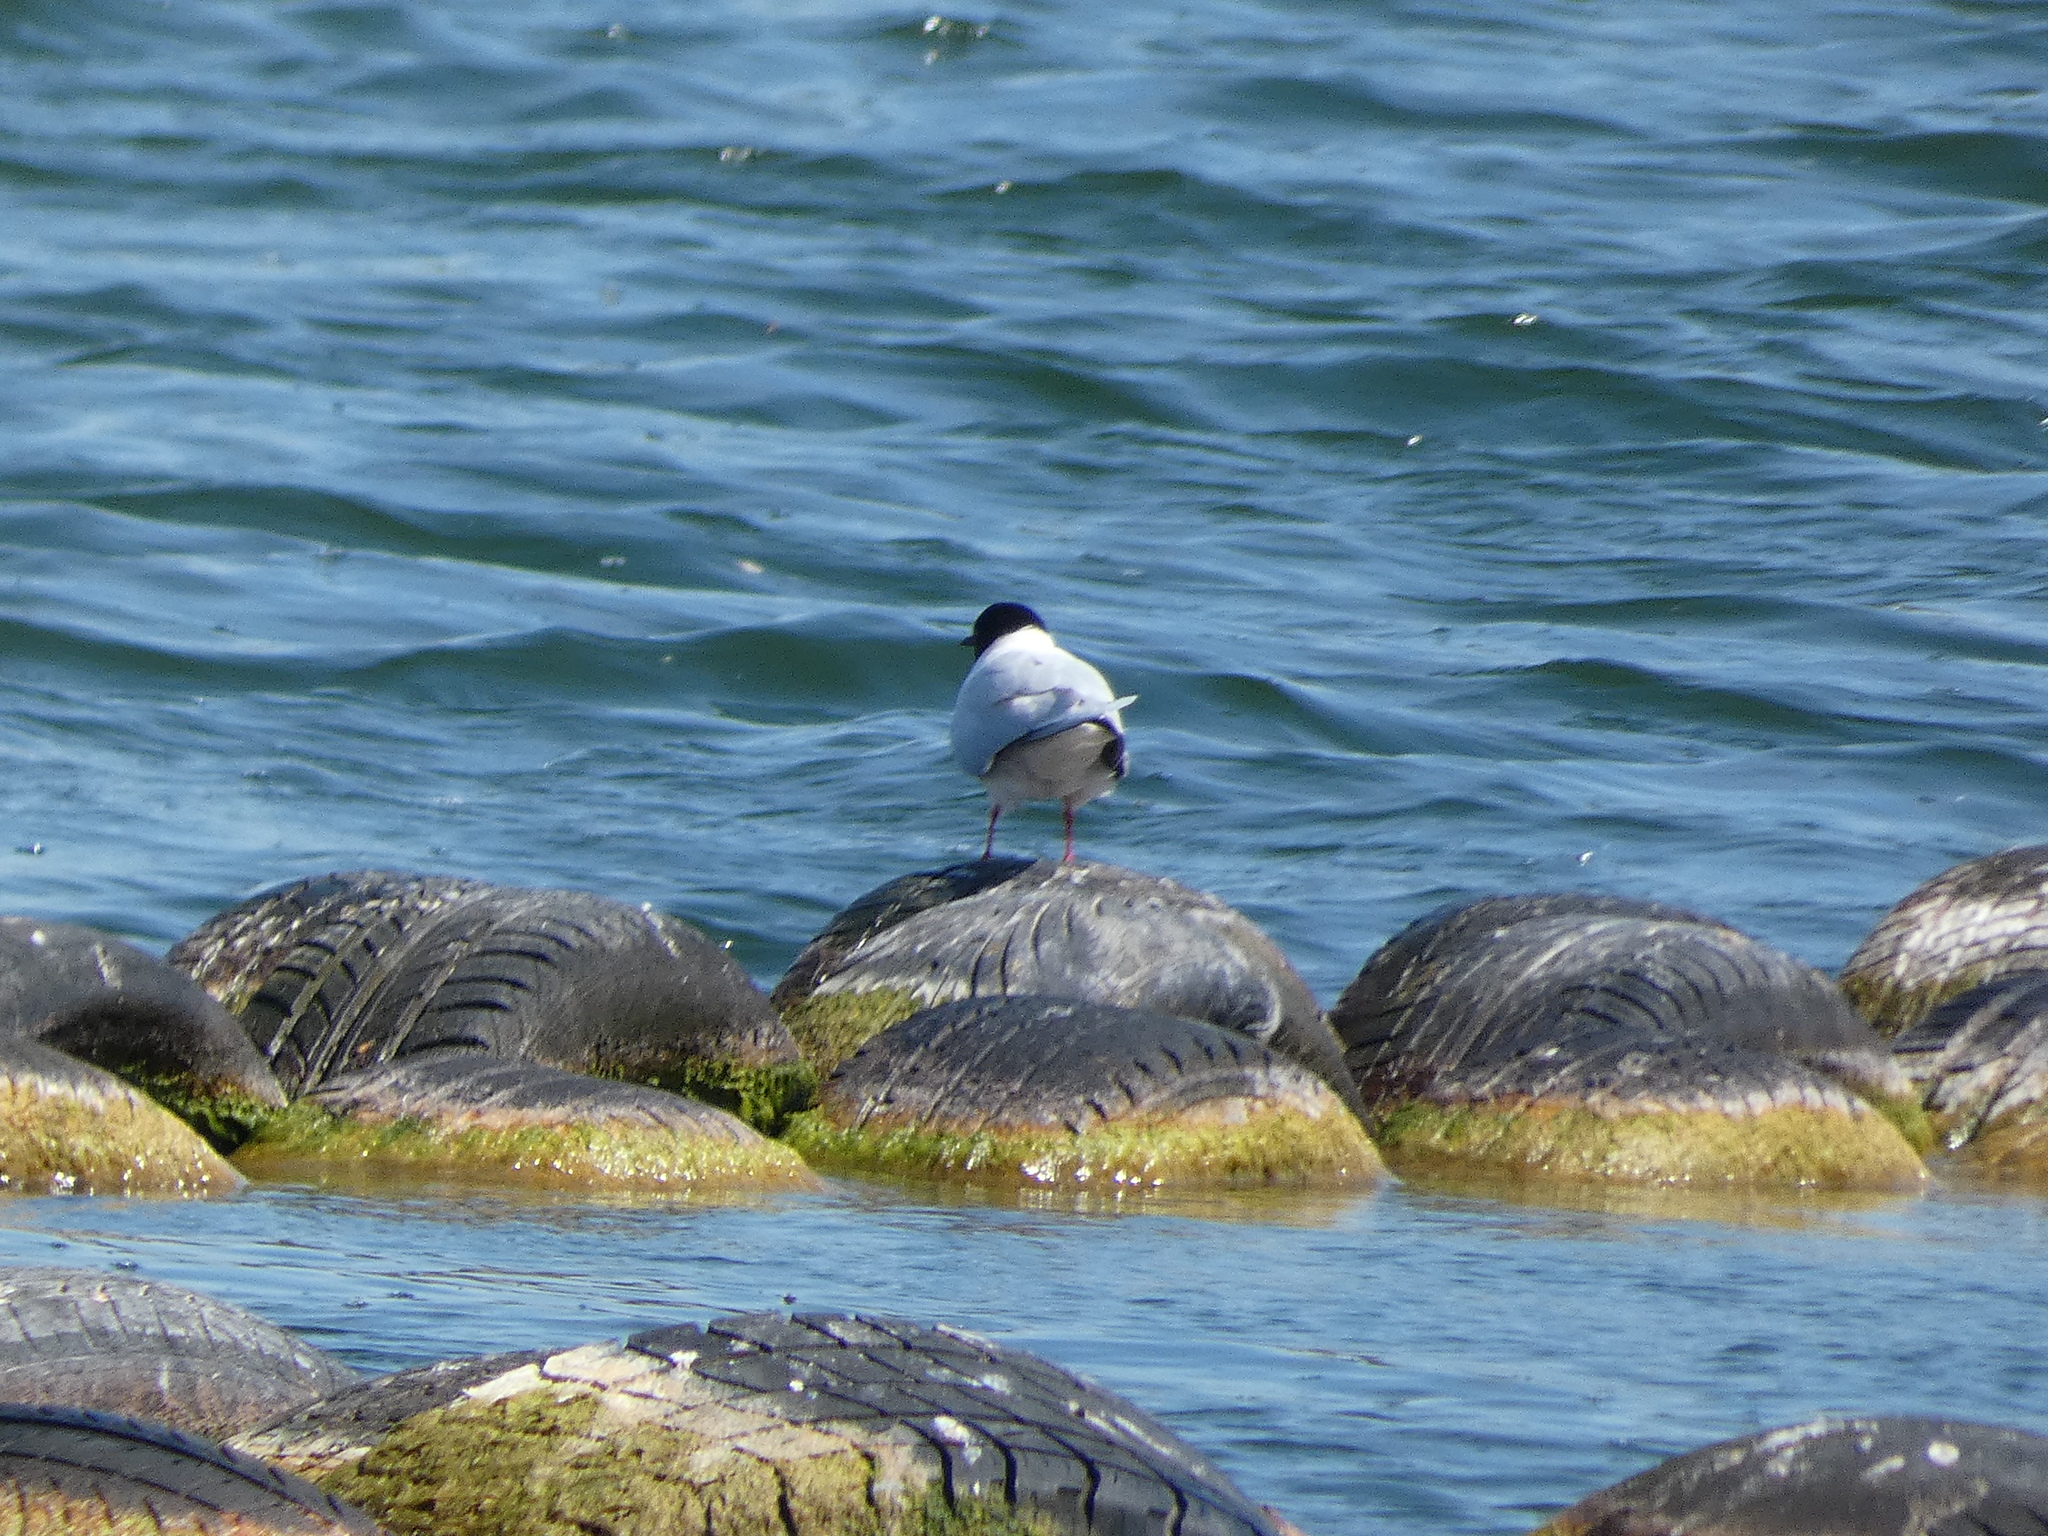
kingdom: Animalia
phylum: Chordata
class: Aves
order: Charadriiformes
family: Laridae
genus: Hydrocoloeus
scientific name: Hydrocoloeus minutus
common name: Little gull
